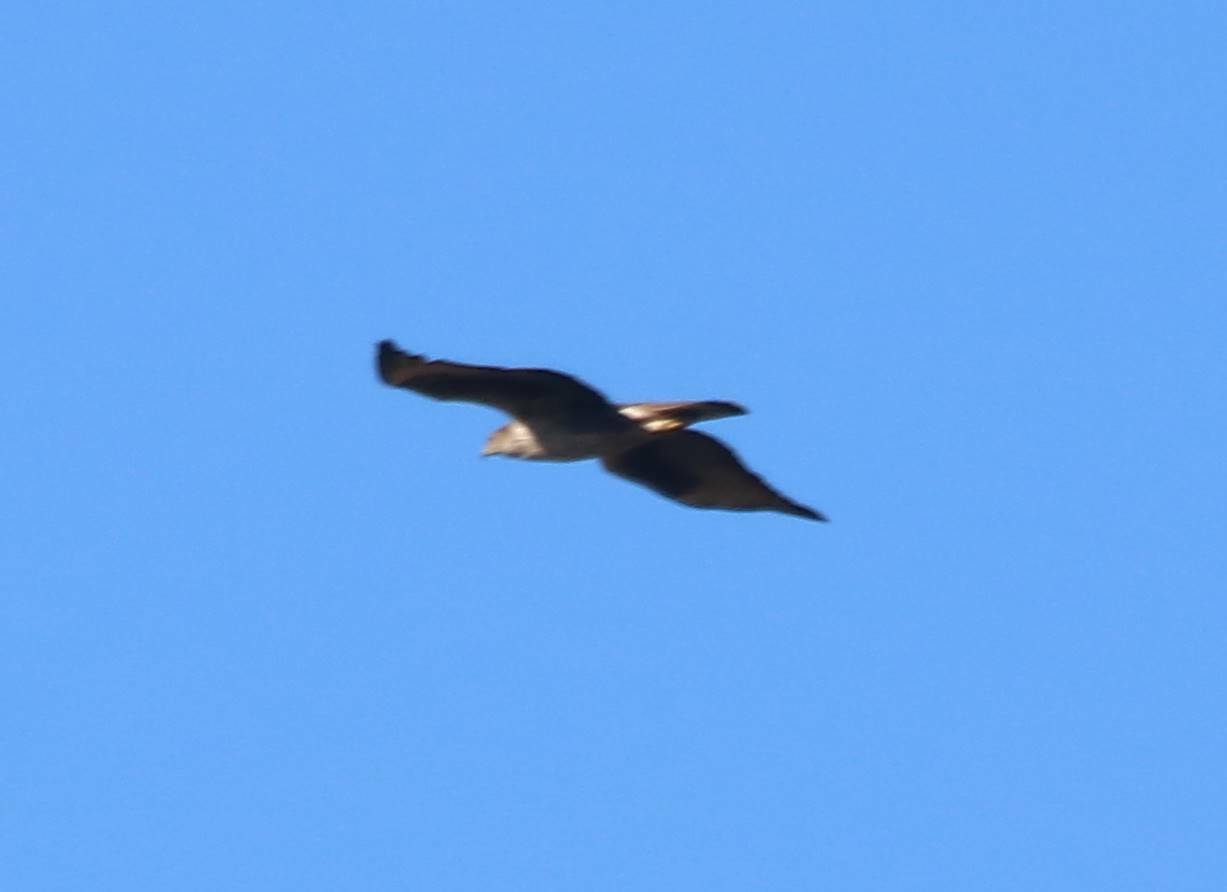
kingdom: Animalia
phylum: Chordata
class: Aves
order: Accipitriformes
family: Accipitridae
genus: Aquila
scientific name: Aquila fasciata
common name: Bonelli's eagle
